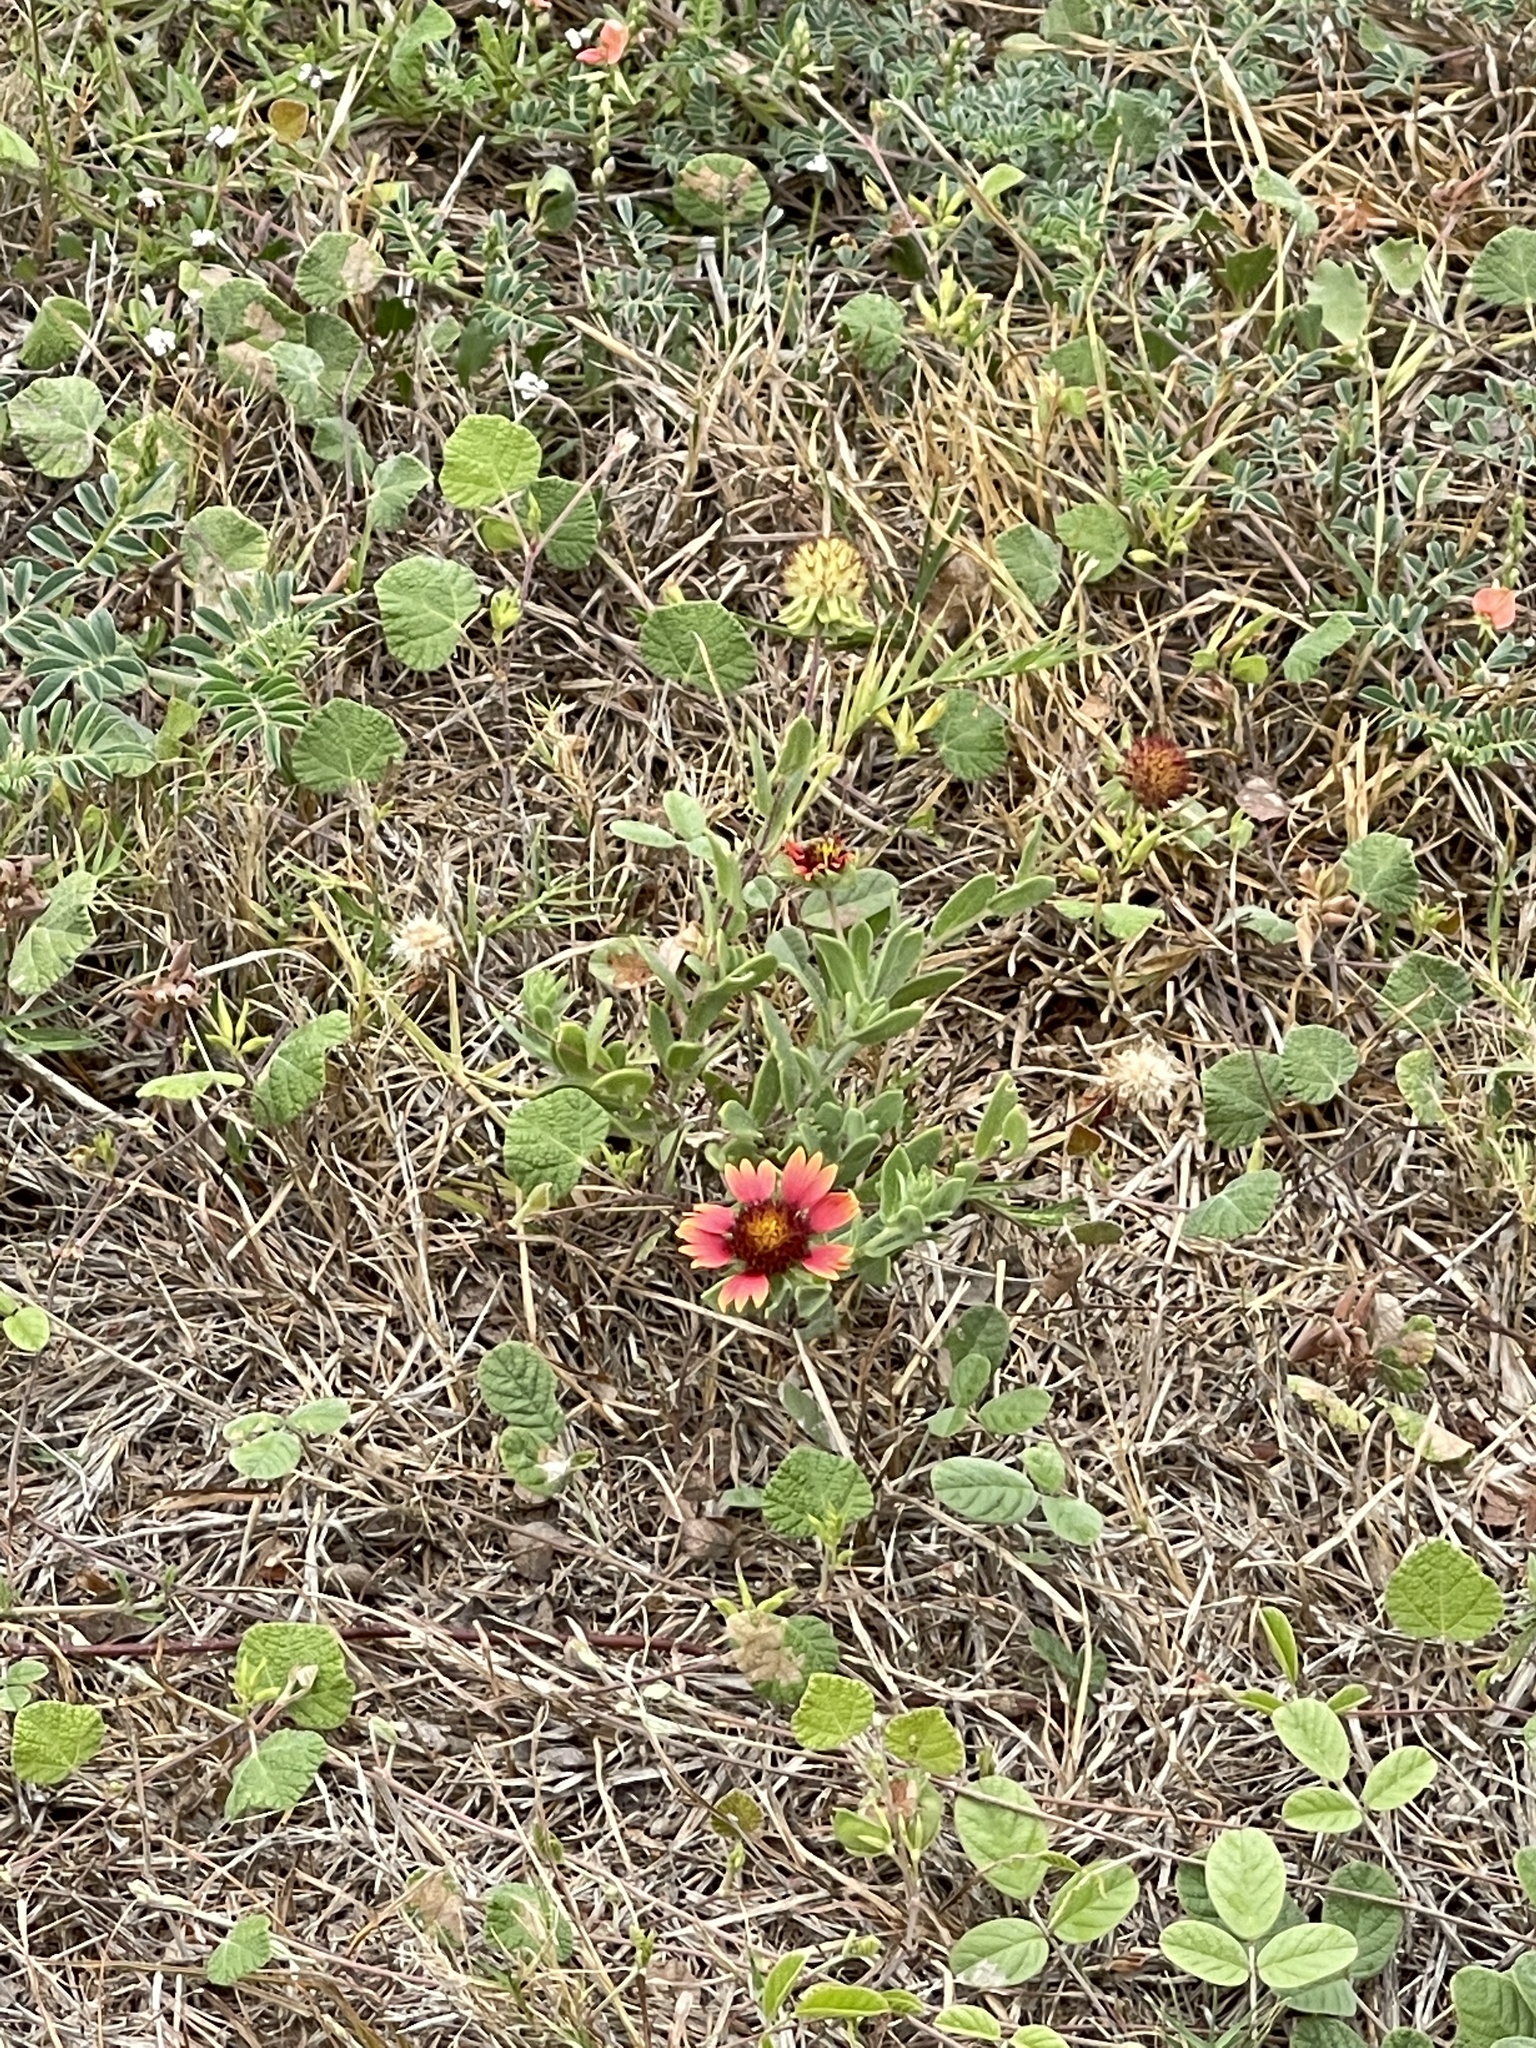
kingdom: Plantae
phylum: Tracheophyta
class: Magnoliopsida
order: Asterales
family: Asteraceae
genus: Gaillardia
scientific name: Gaillardia pulchella
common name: Firewheel
